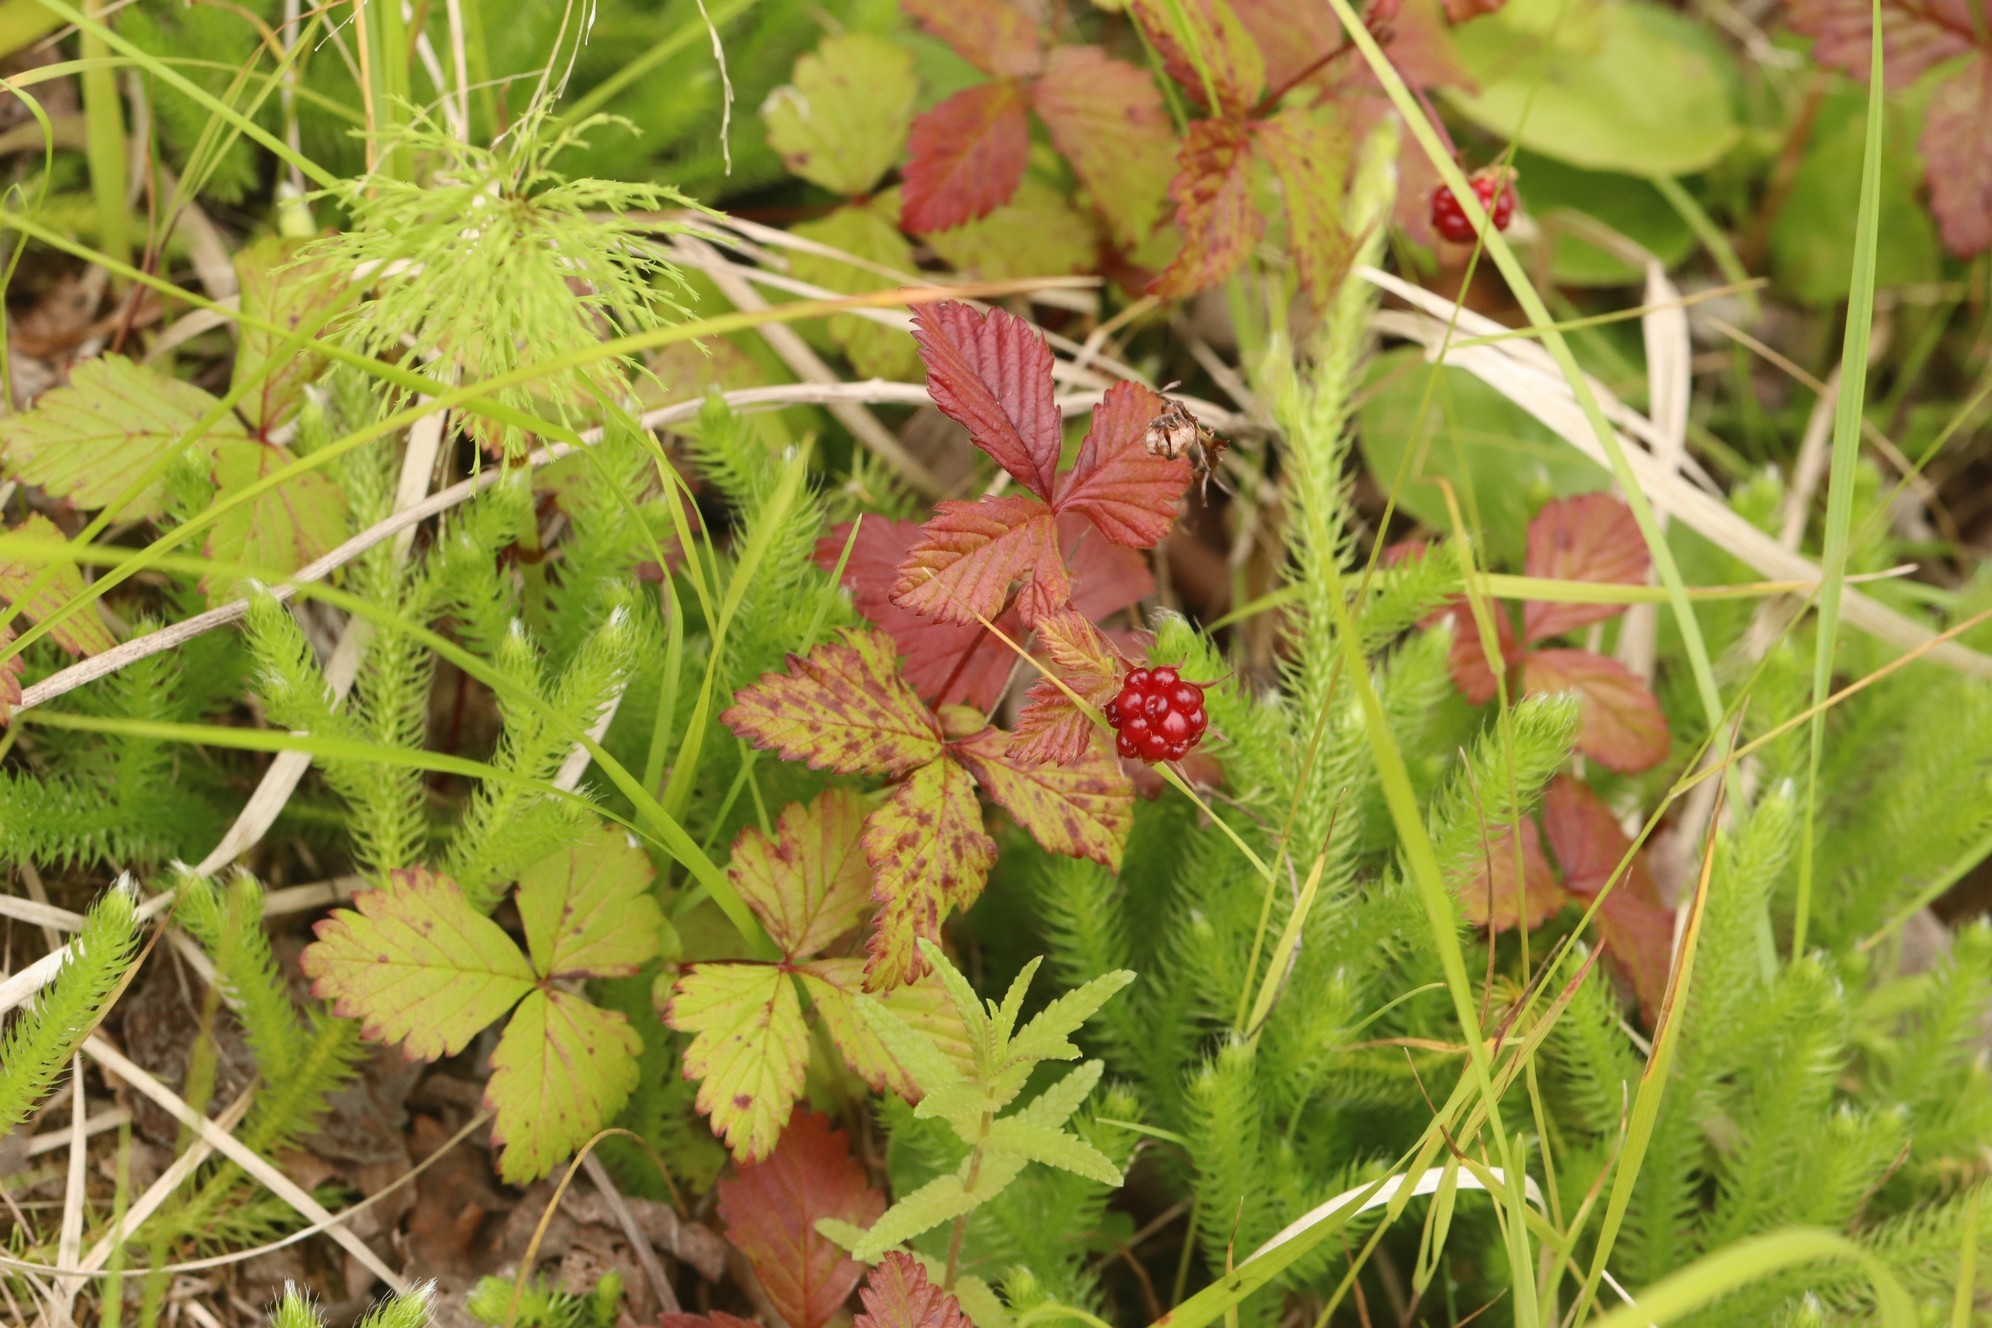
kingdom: Plantae
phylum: Tracheophyta
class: Magnoliopsida
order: Rosales
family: Rosaceae
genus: Rubus
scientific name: Rubus arcticus
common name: Arctic bramble
